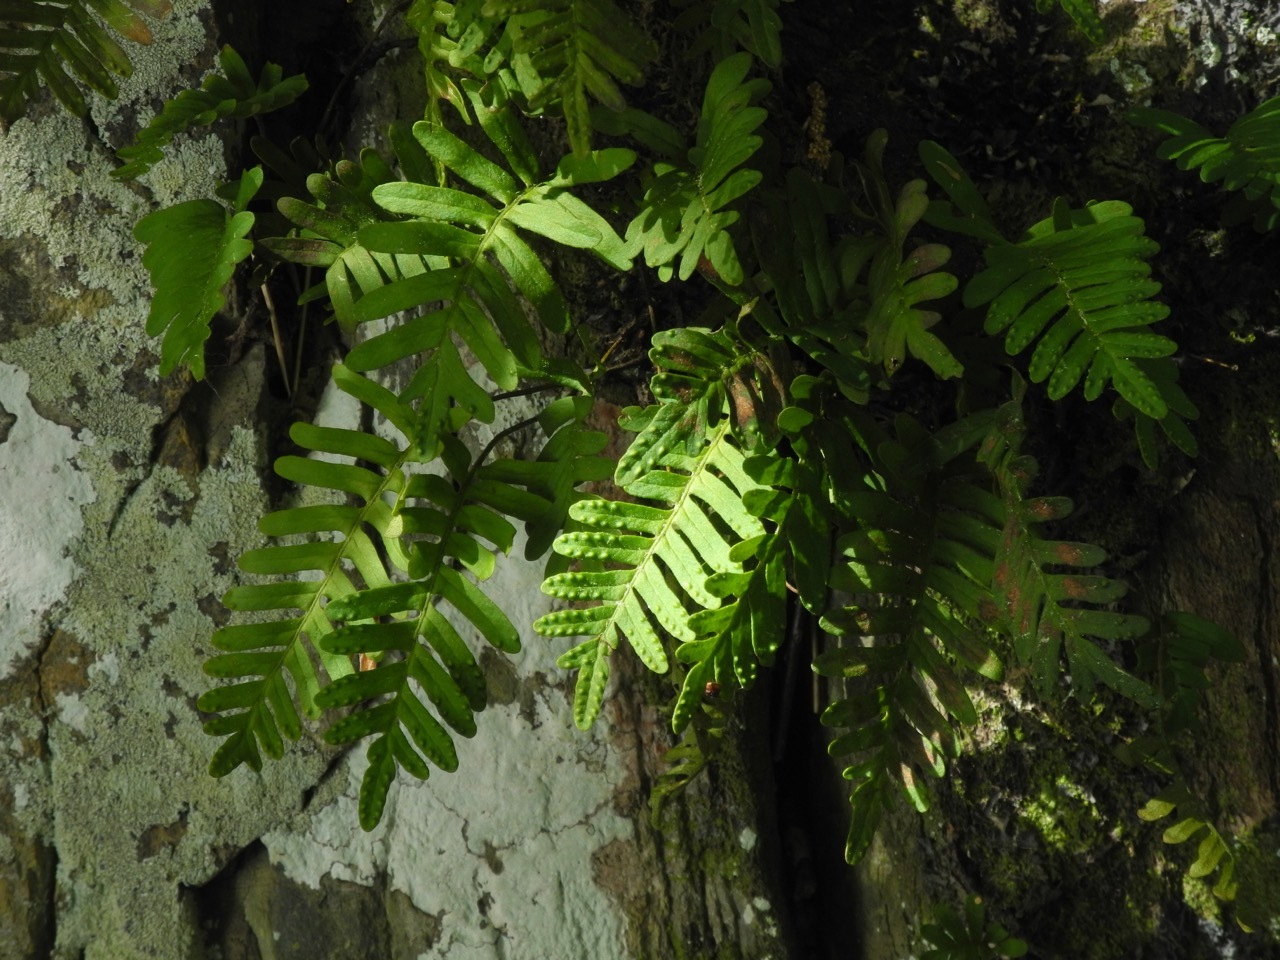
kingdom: Plantae
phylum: Tracheophyta
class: Polypodiopsida
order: Polypodiales
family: Polypodiaceae
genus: Pleopeltis
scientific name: Pleopeltis michauxiana
